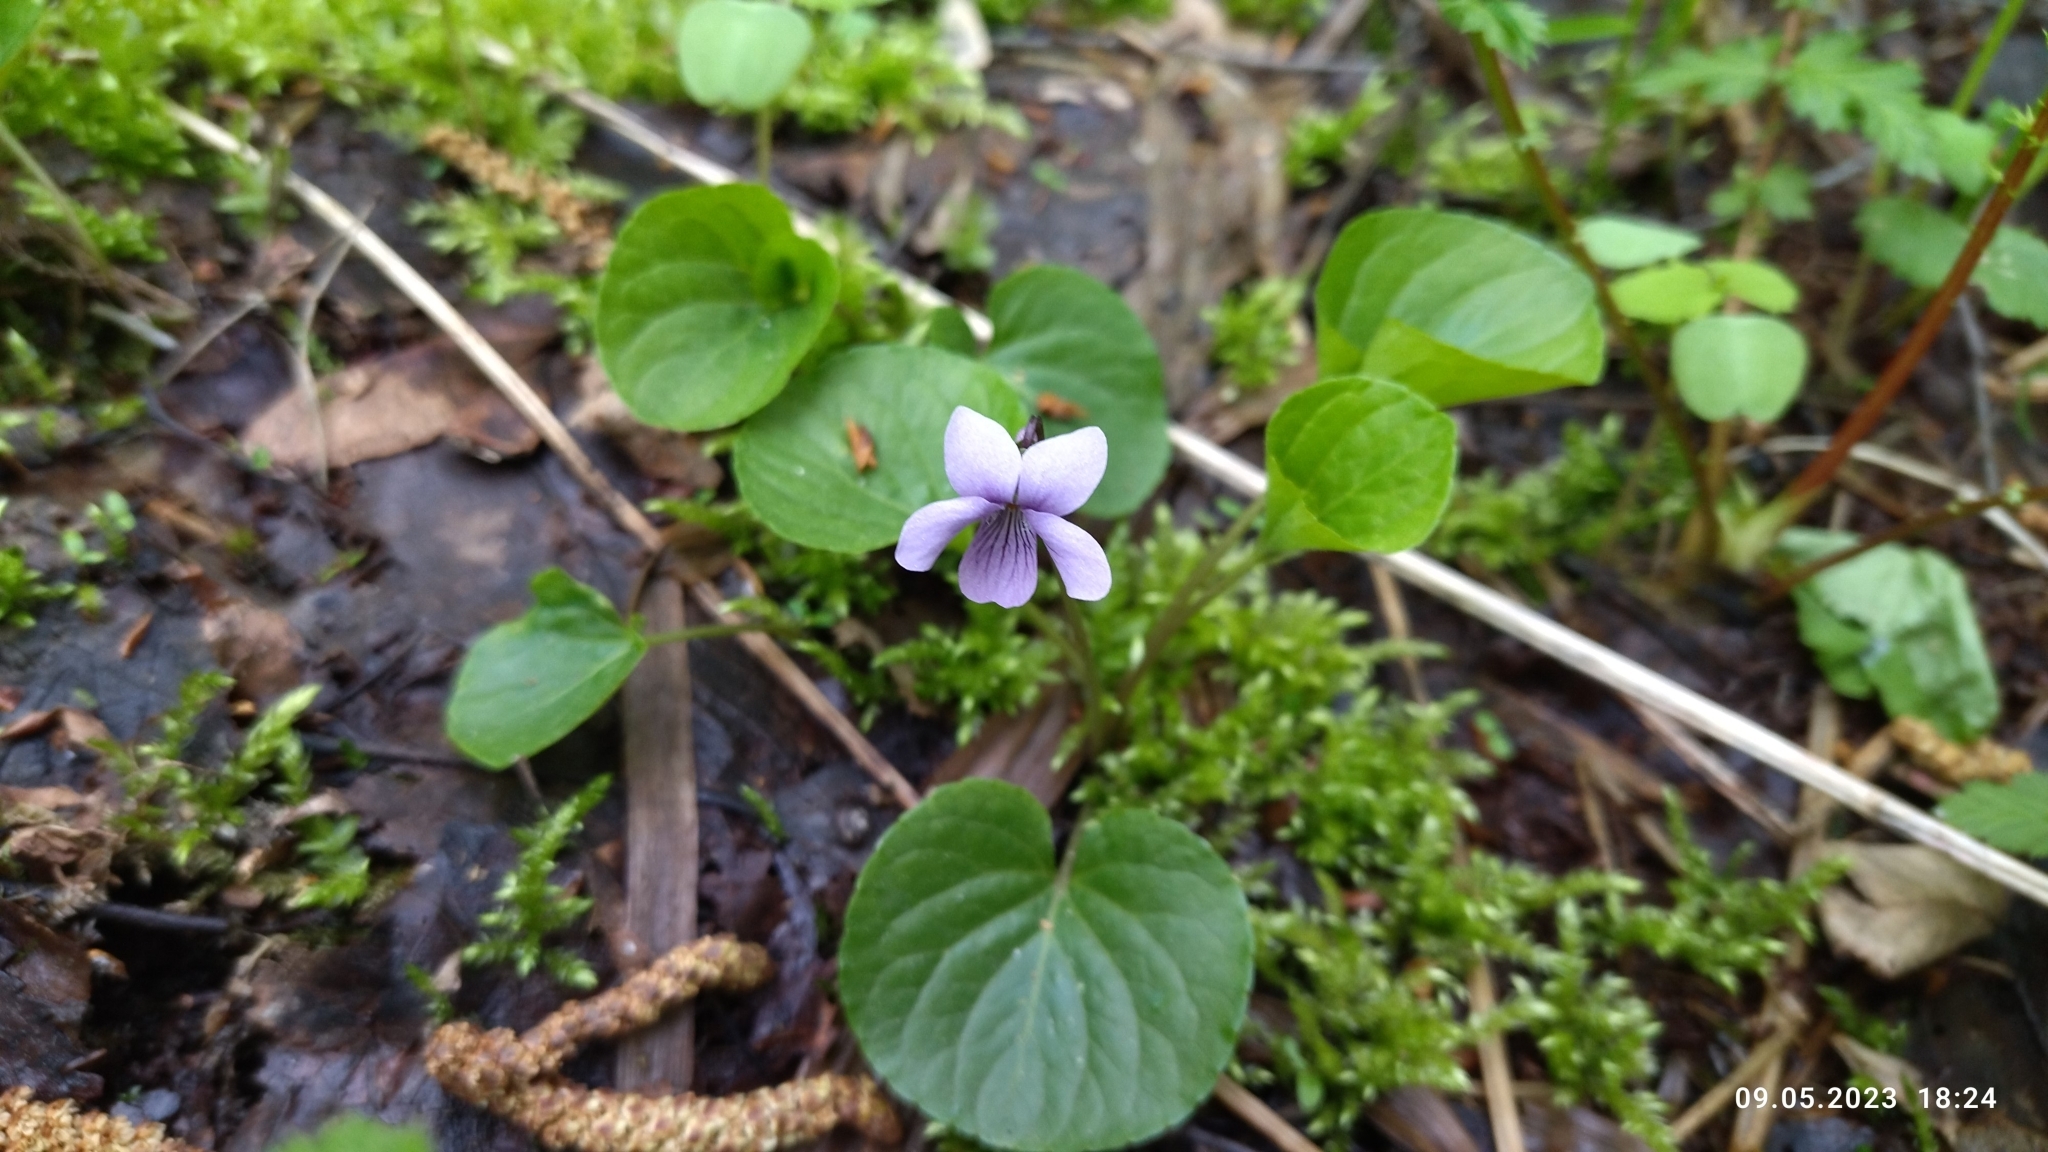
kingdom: Plantae
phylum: Tracheophyta
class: Magnoliopsida
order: Malpighiales
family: Violaceae
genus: Viola
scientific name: Viola palustris
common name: Marsh violet
